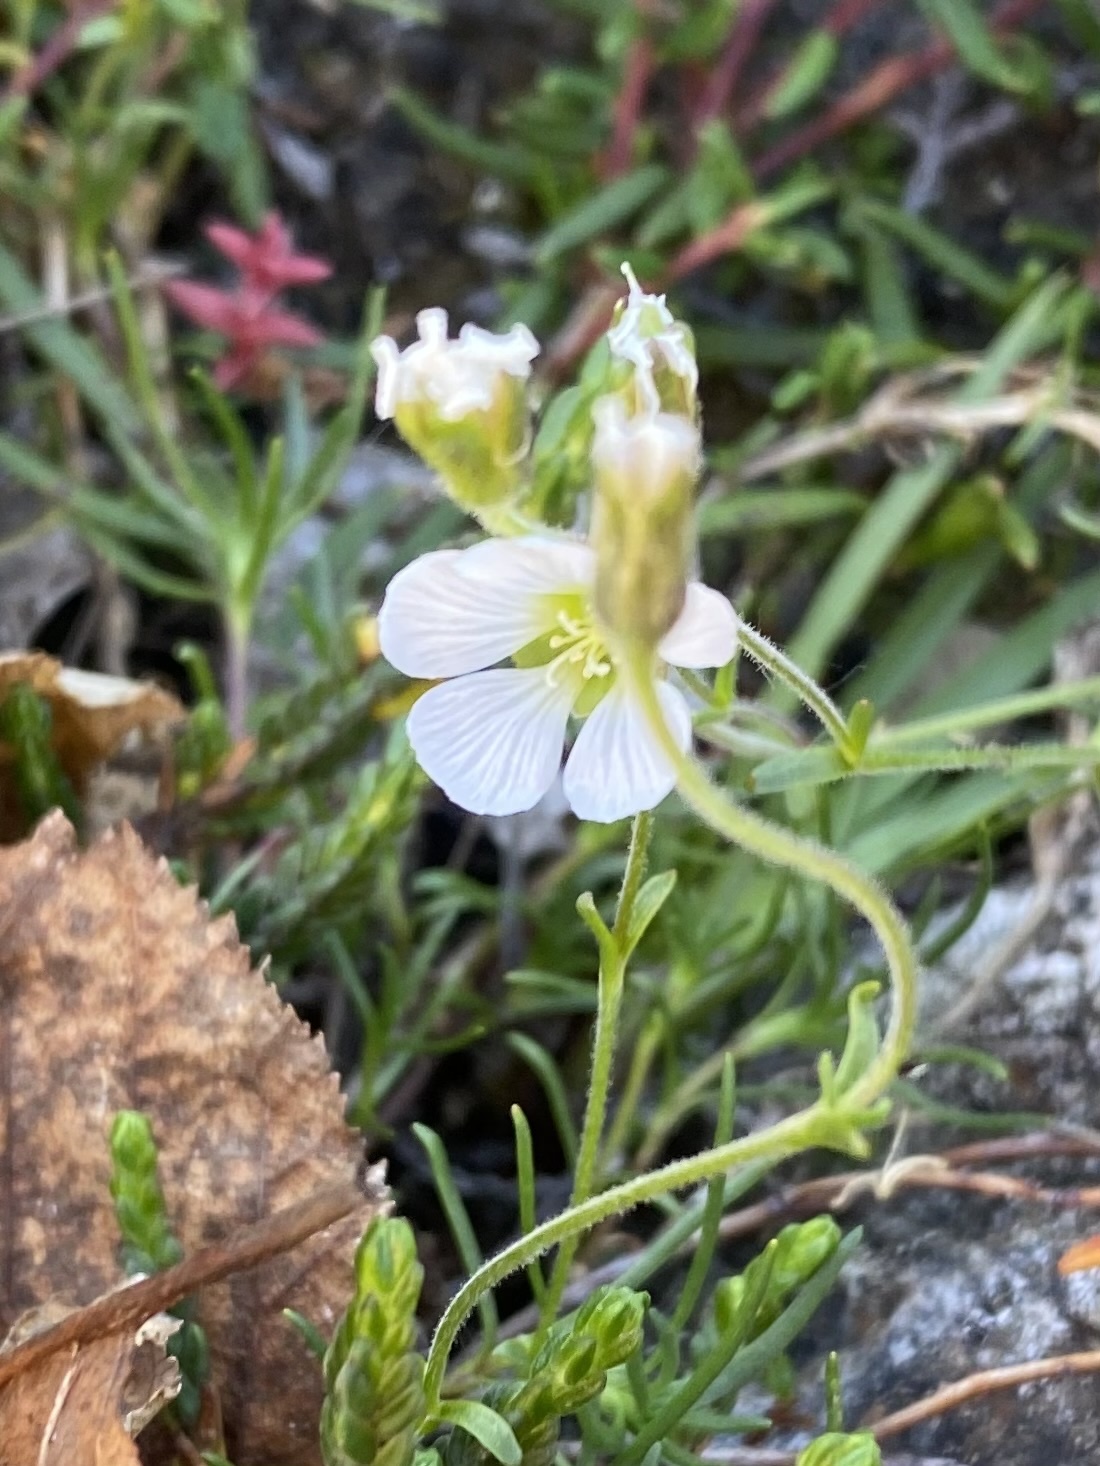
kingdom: Plantae
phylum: Tracheophyta
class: Magnoliopsida
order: Caryophyllales
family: Caryophyllaceae
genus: Cherleria
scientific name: Cherleria arctica
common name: Arctic sandwort
